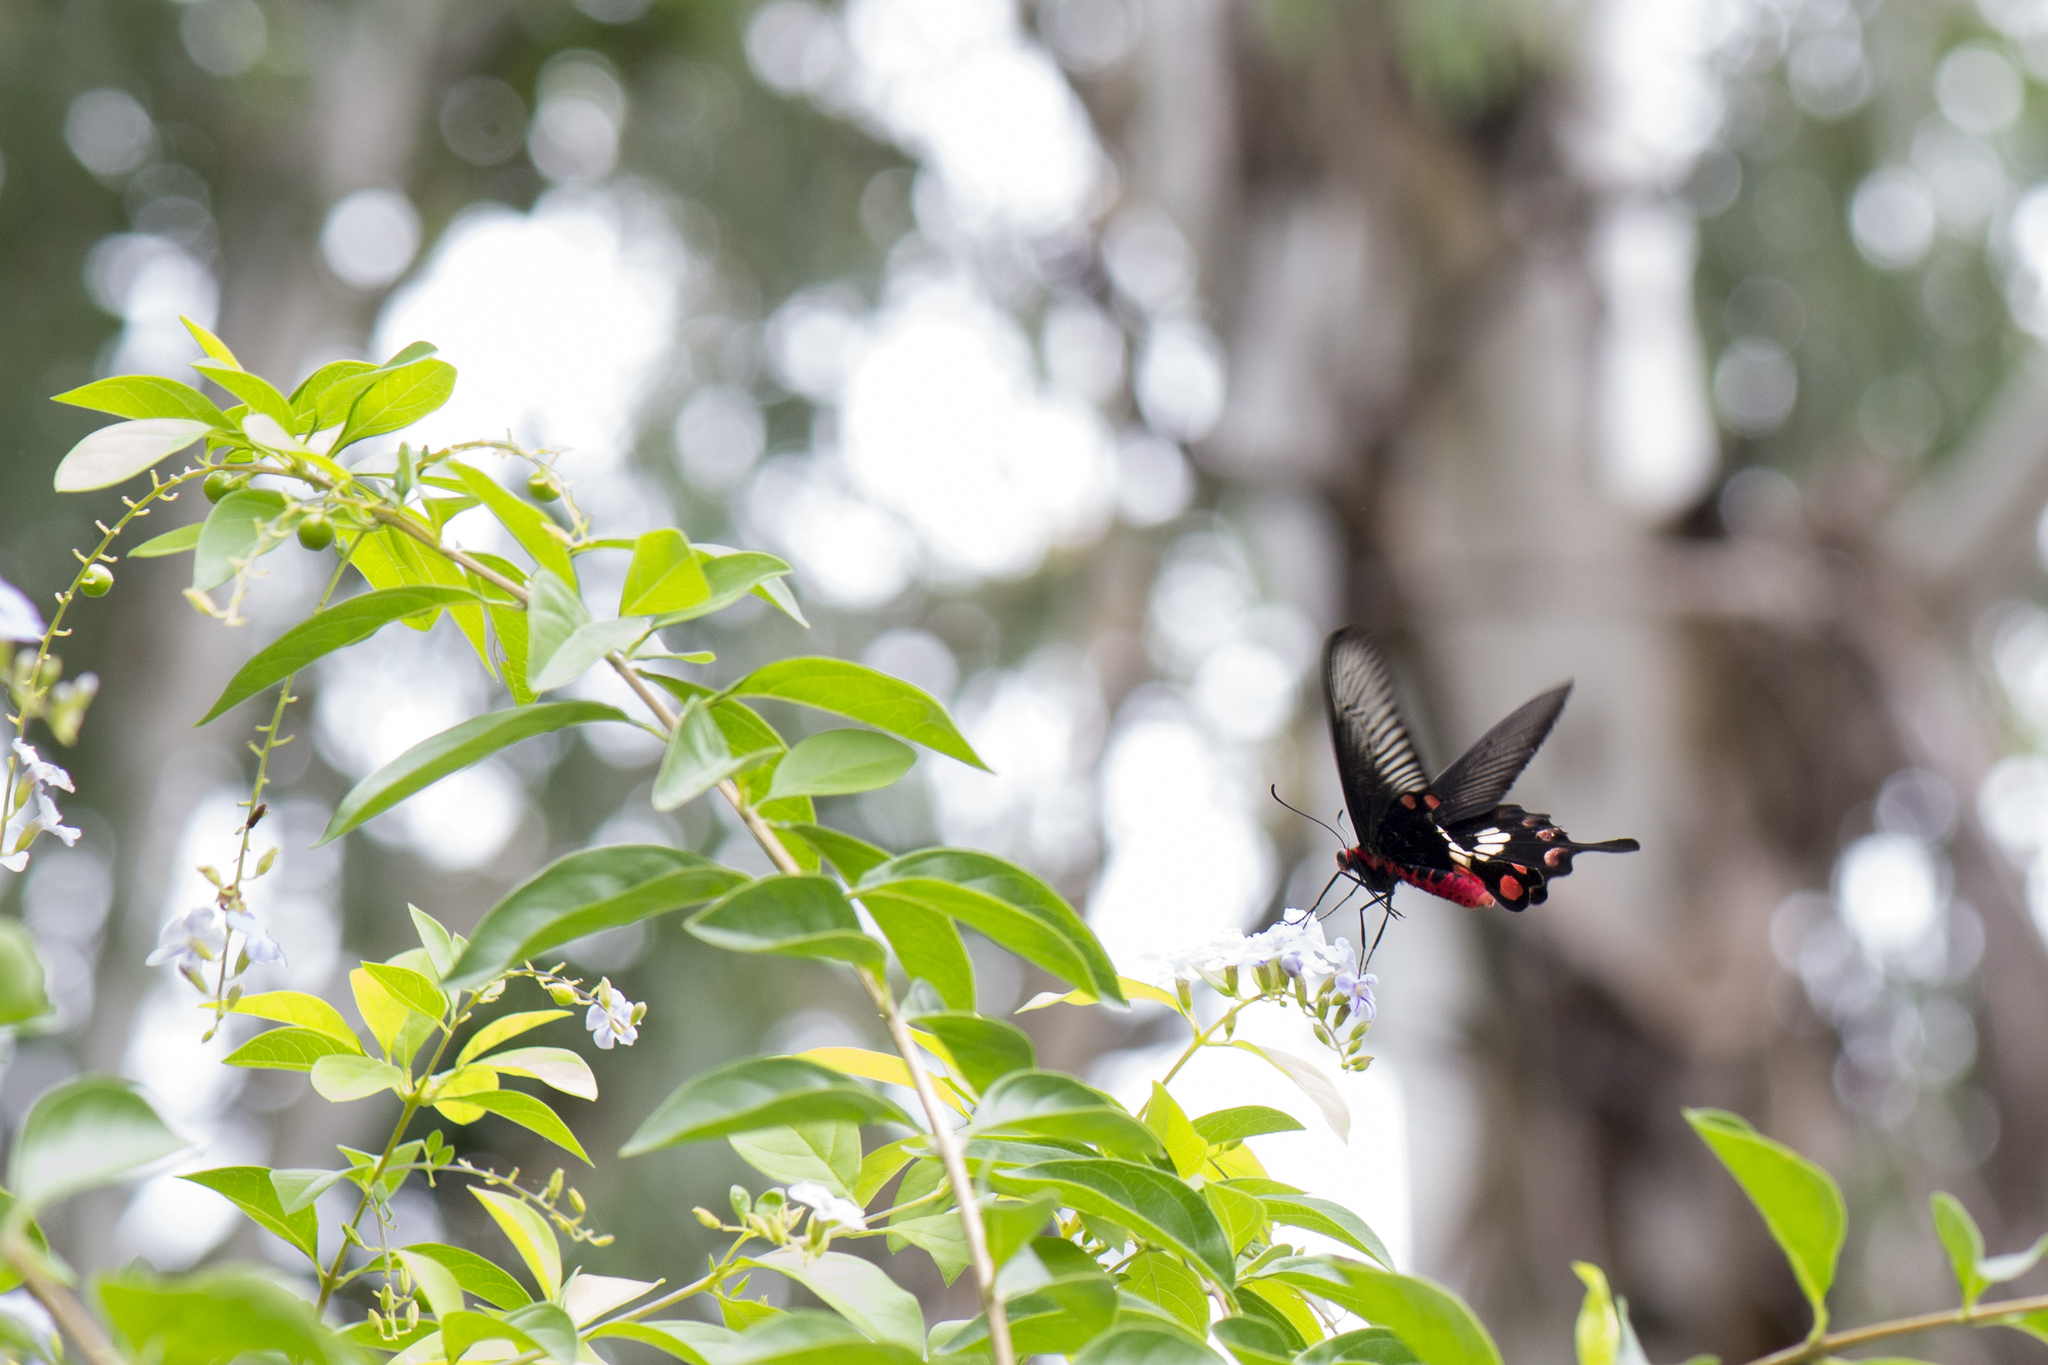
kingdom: Animalia
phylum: Arthropoda
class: Insecta
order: Lepidoptera
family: Papilionidae
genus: Pachliopta
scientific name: Pachliopta aristolochiae
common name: Common rose
